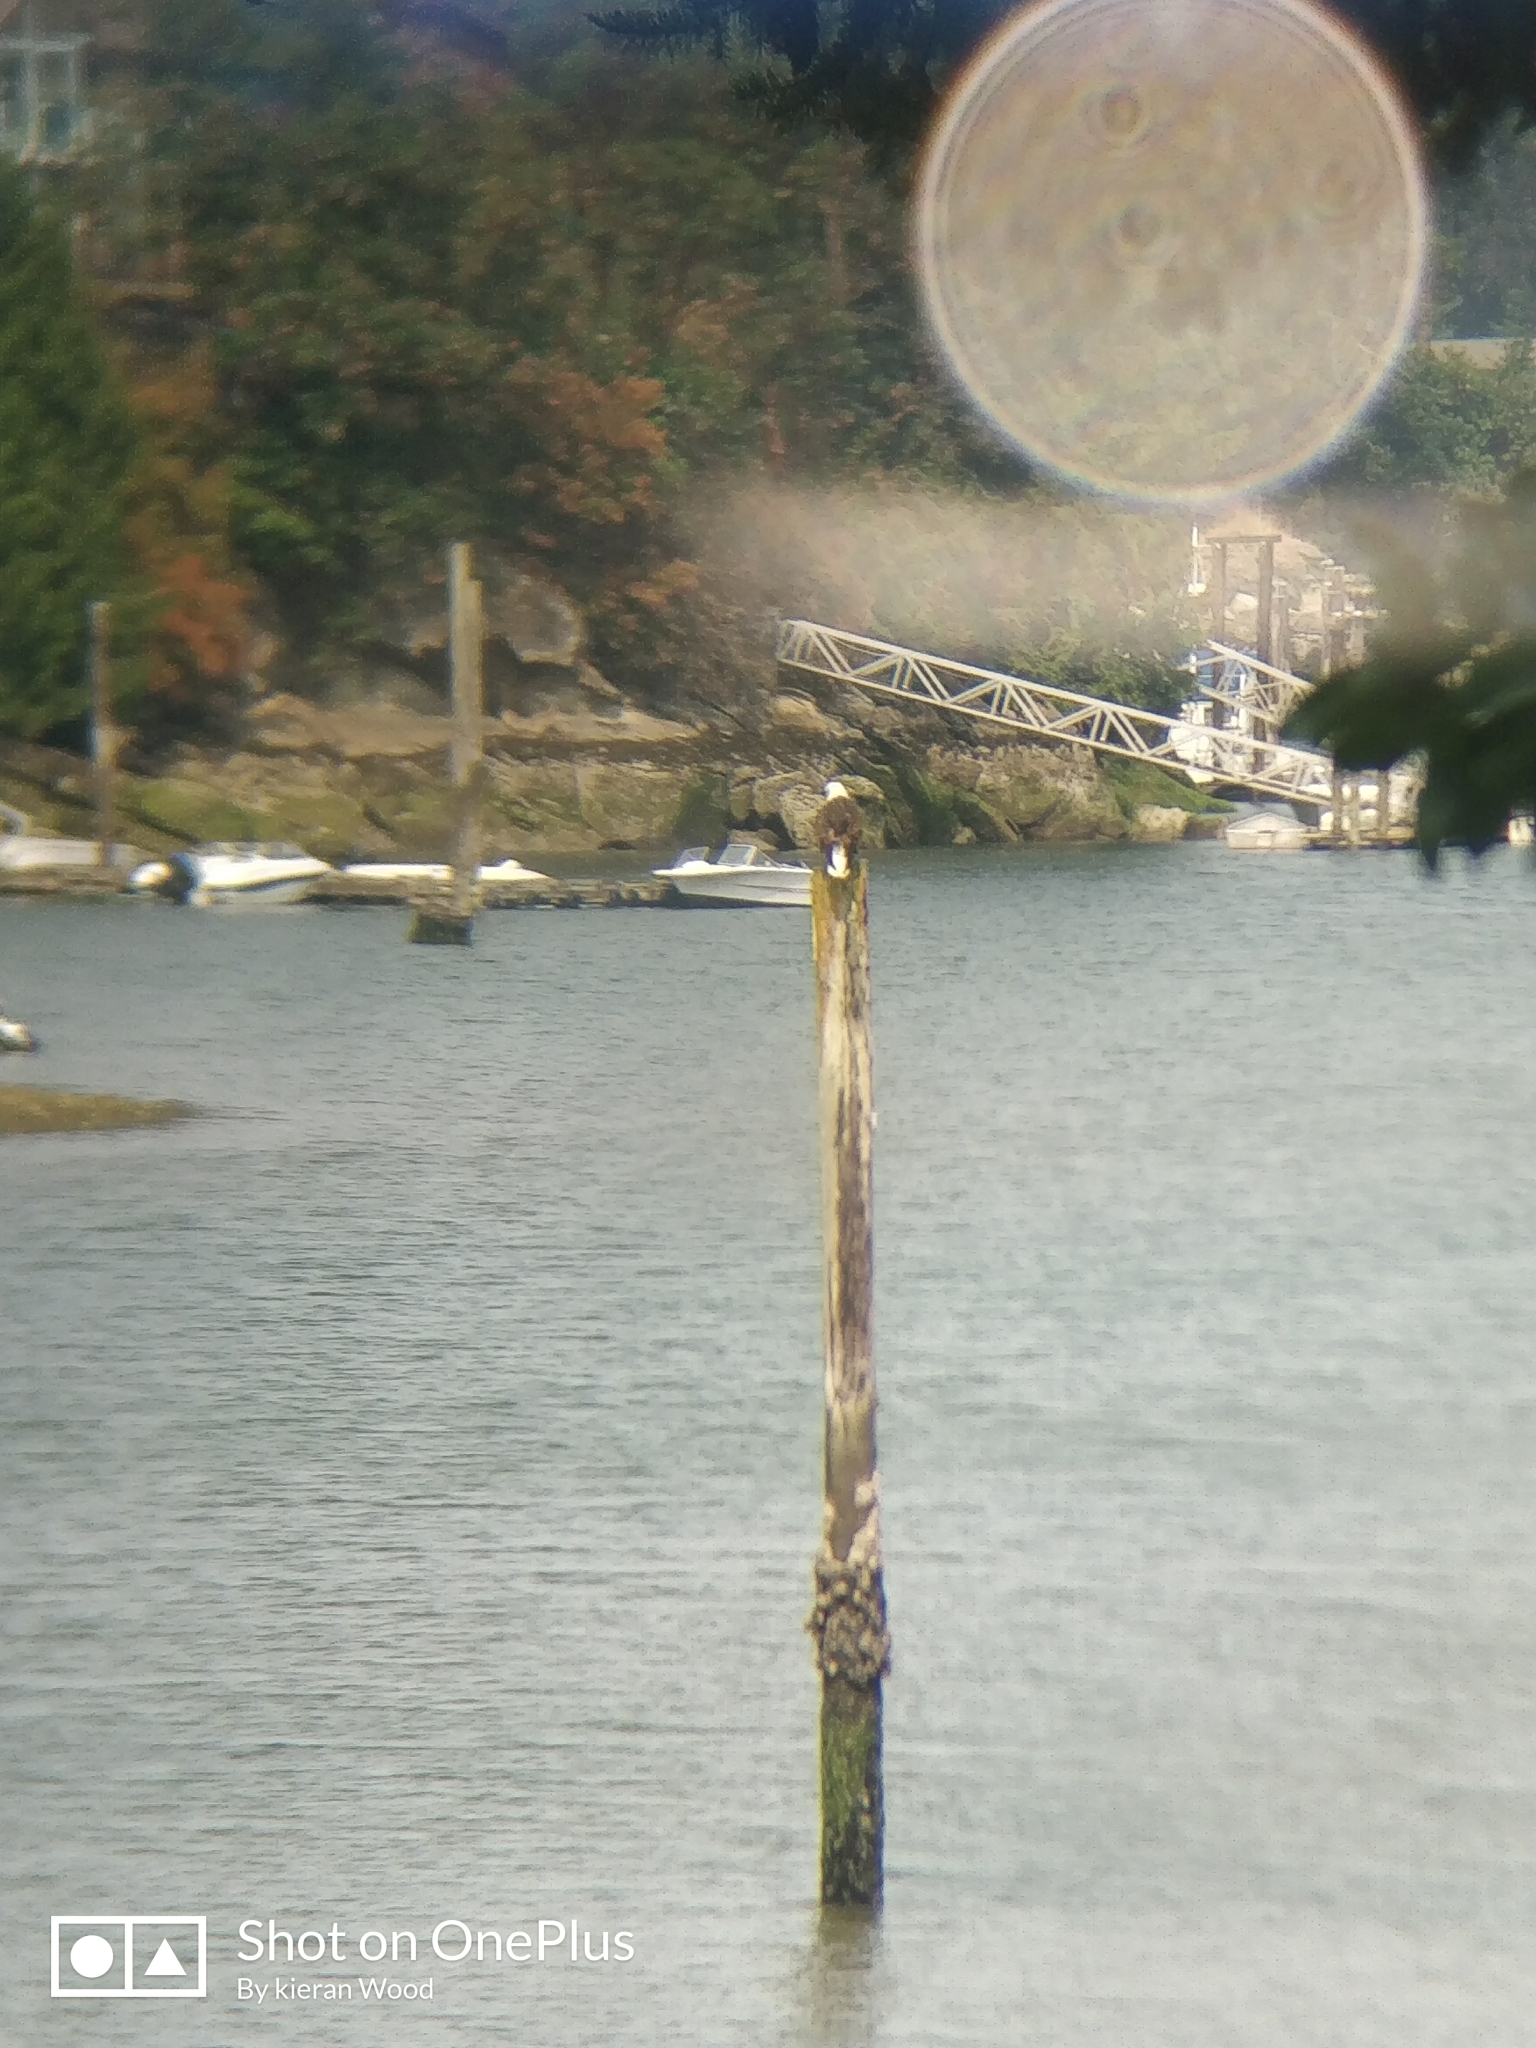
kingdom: Animalia
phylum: Chordata
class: Aves
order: Accipitriformes
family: Accipitridae
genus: Haliaeetus
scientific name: Haliaeetus leucocephalus
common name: Bald eagle
